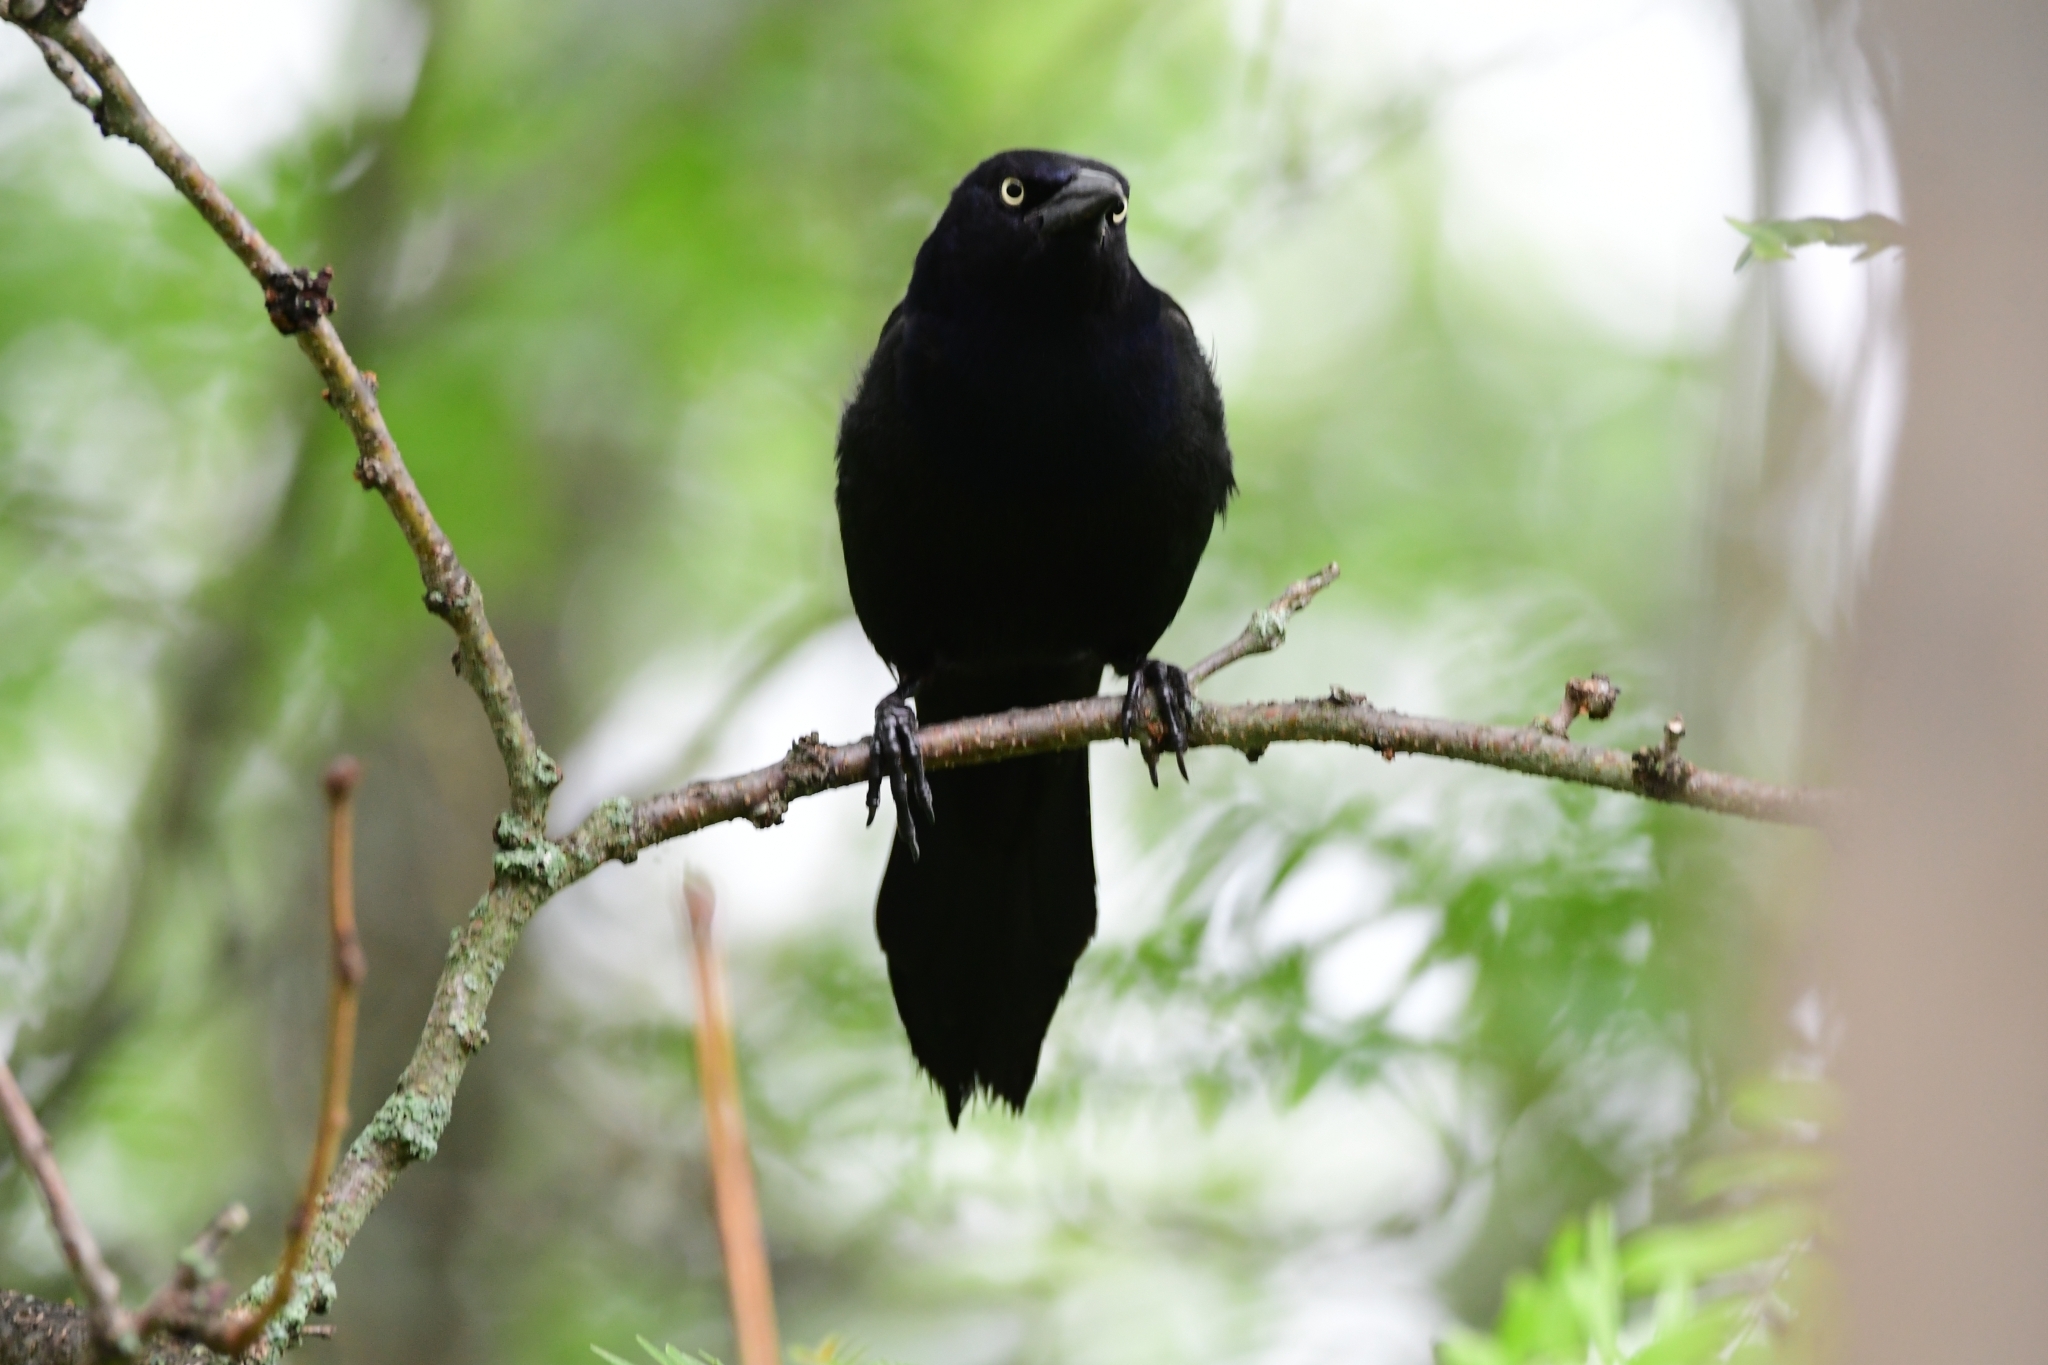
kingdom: Animalia
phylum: Chordata
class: Aves
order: Passeriformes
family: Icteridae
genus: Quiscalus
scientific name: Quiscalus quiscula
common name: Common grackle
